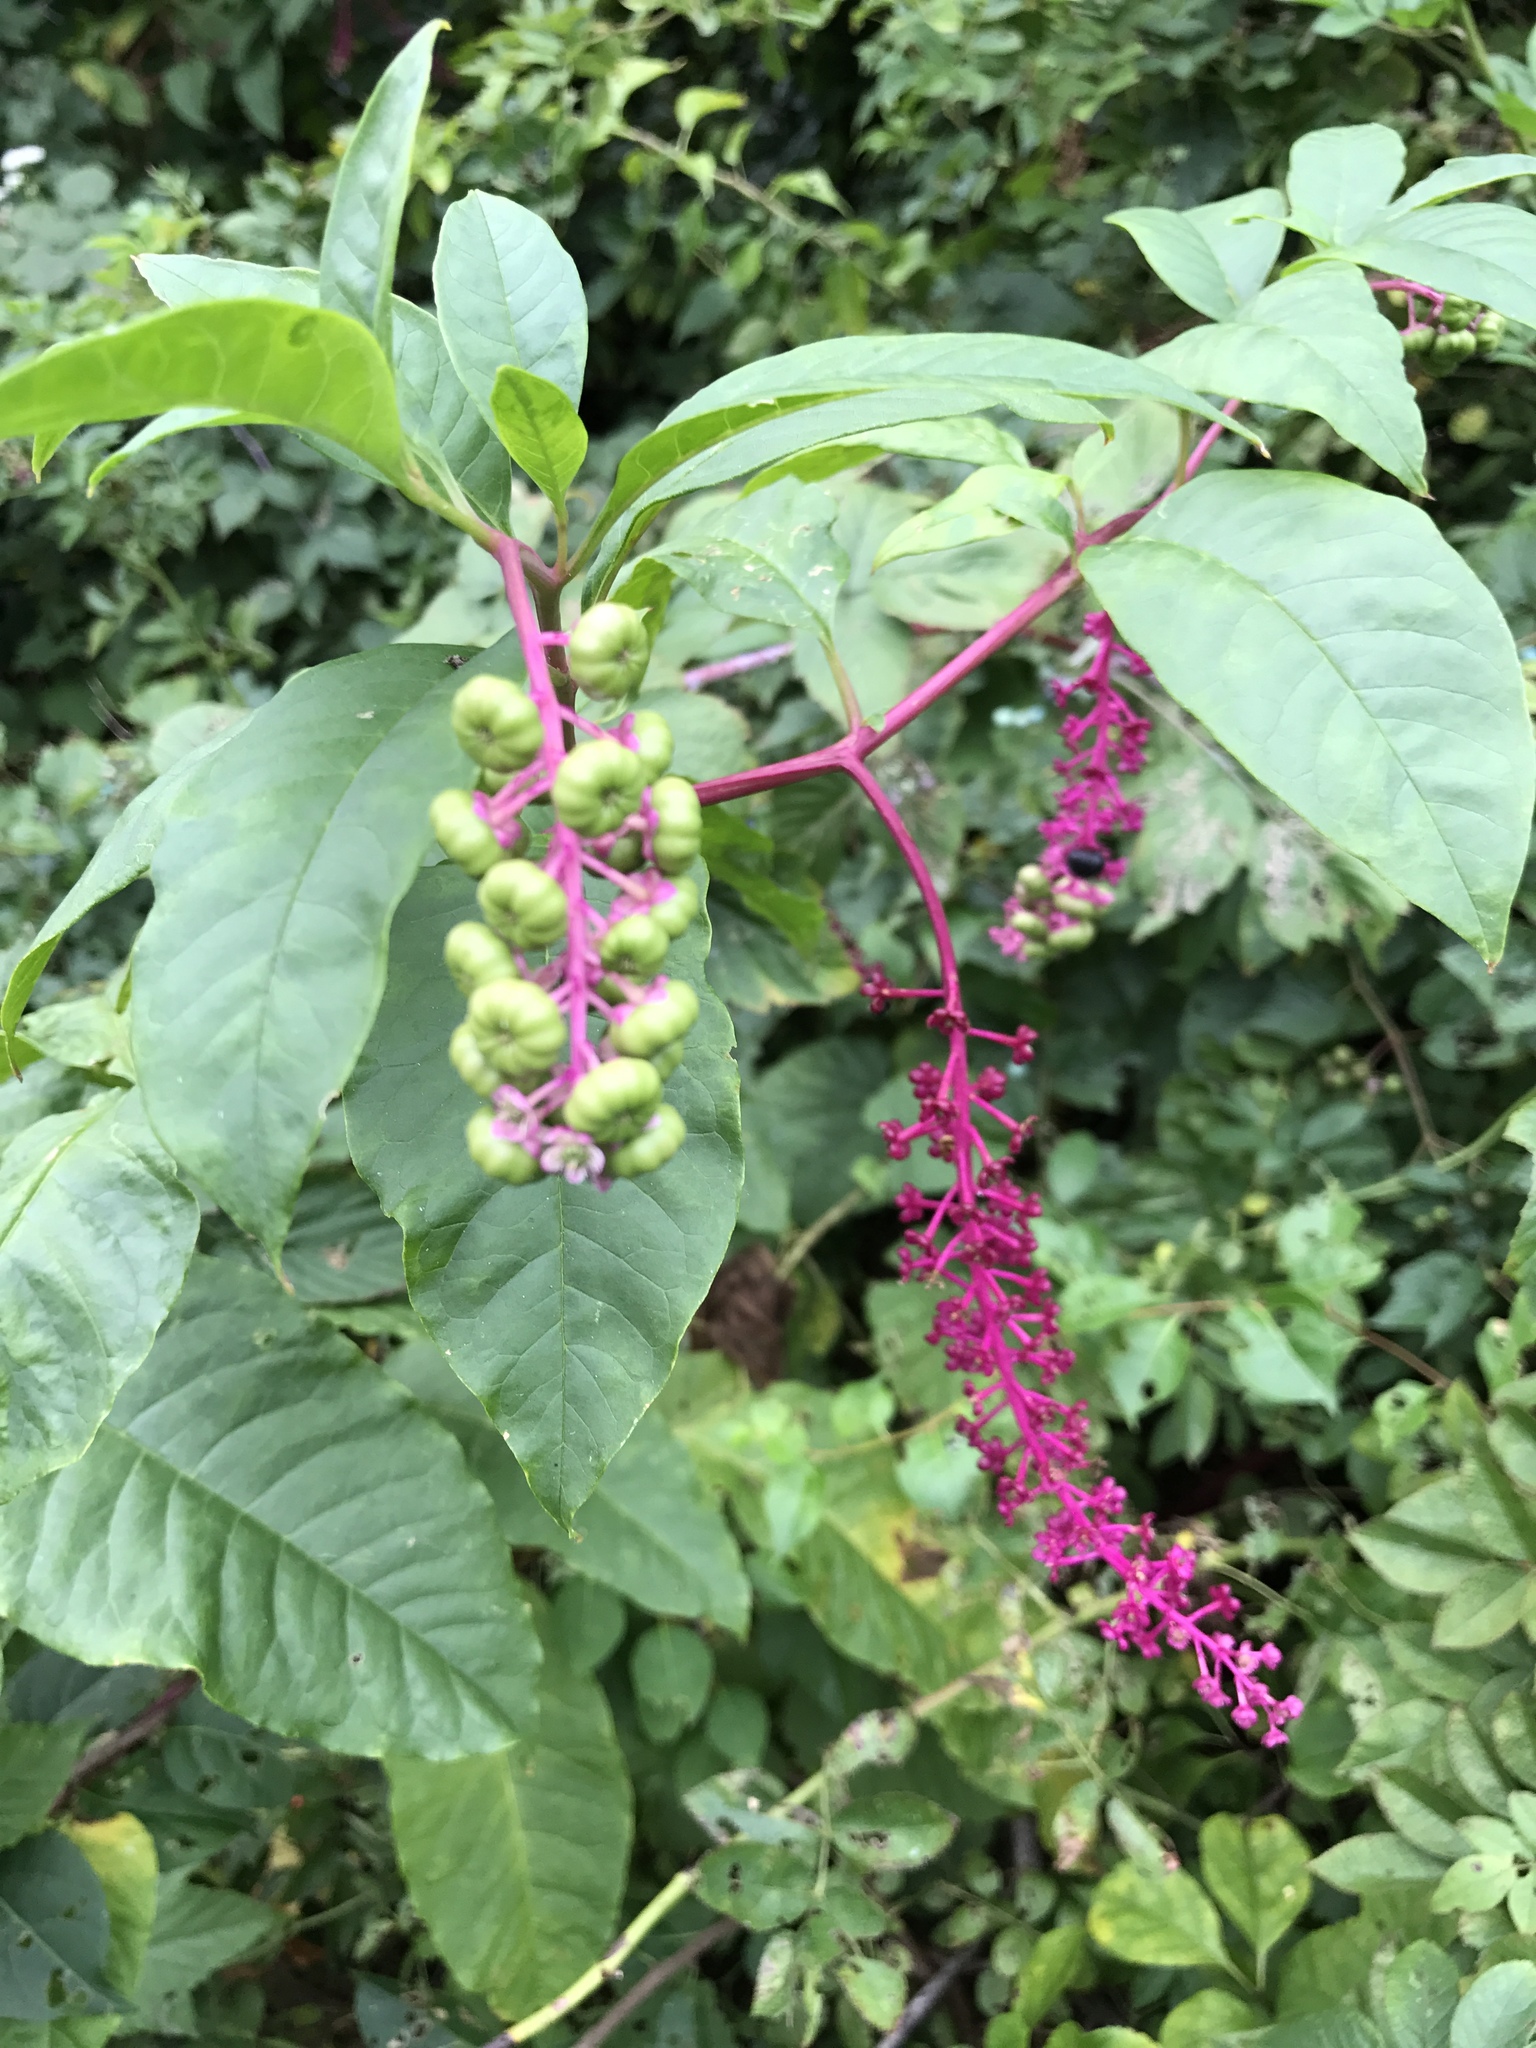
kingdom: Plantae
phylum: Tracheophyta
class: Magnoliopsida
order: Caryophyllales
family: Phytolaccaceae
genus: Phytolacca
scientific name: Phytolacca americana
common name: American pokeweed
